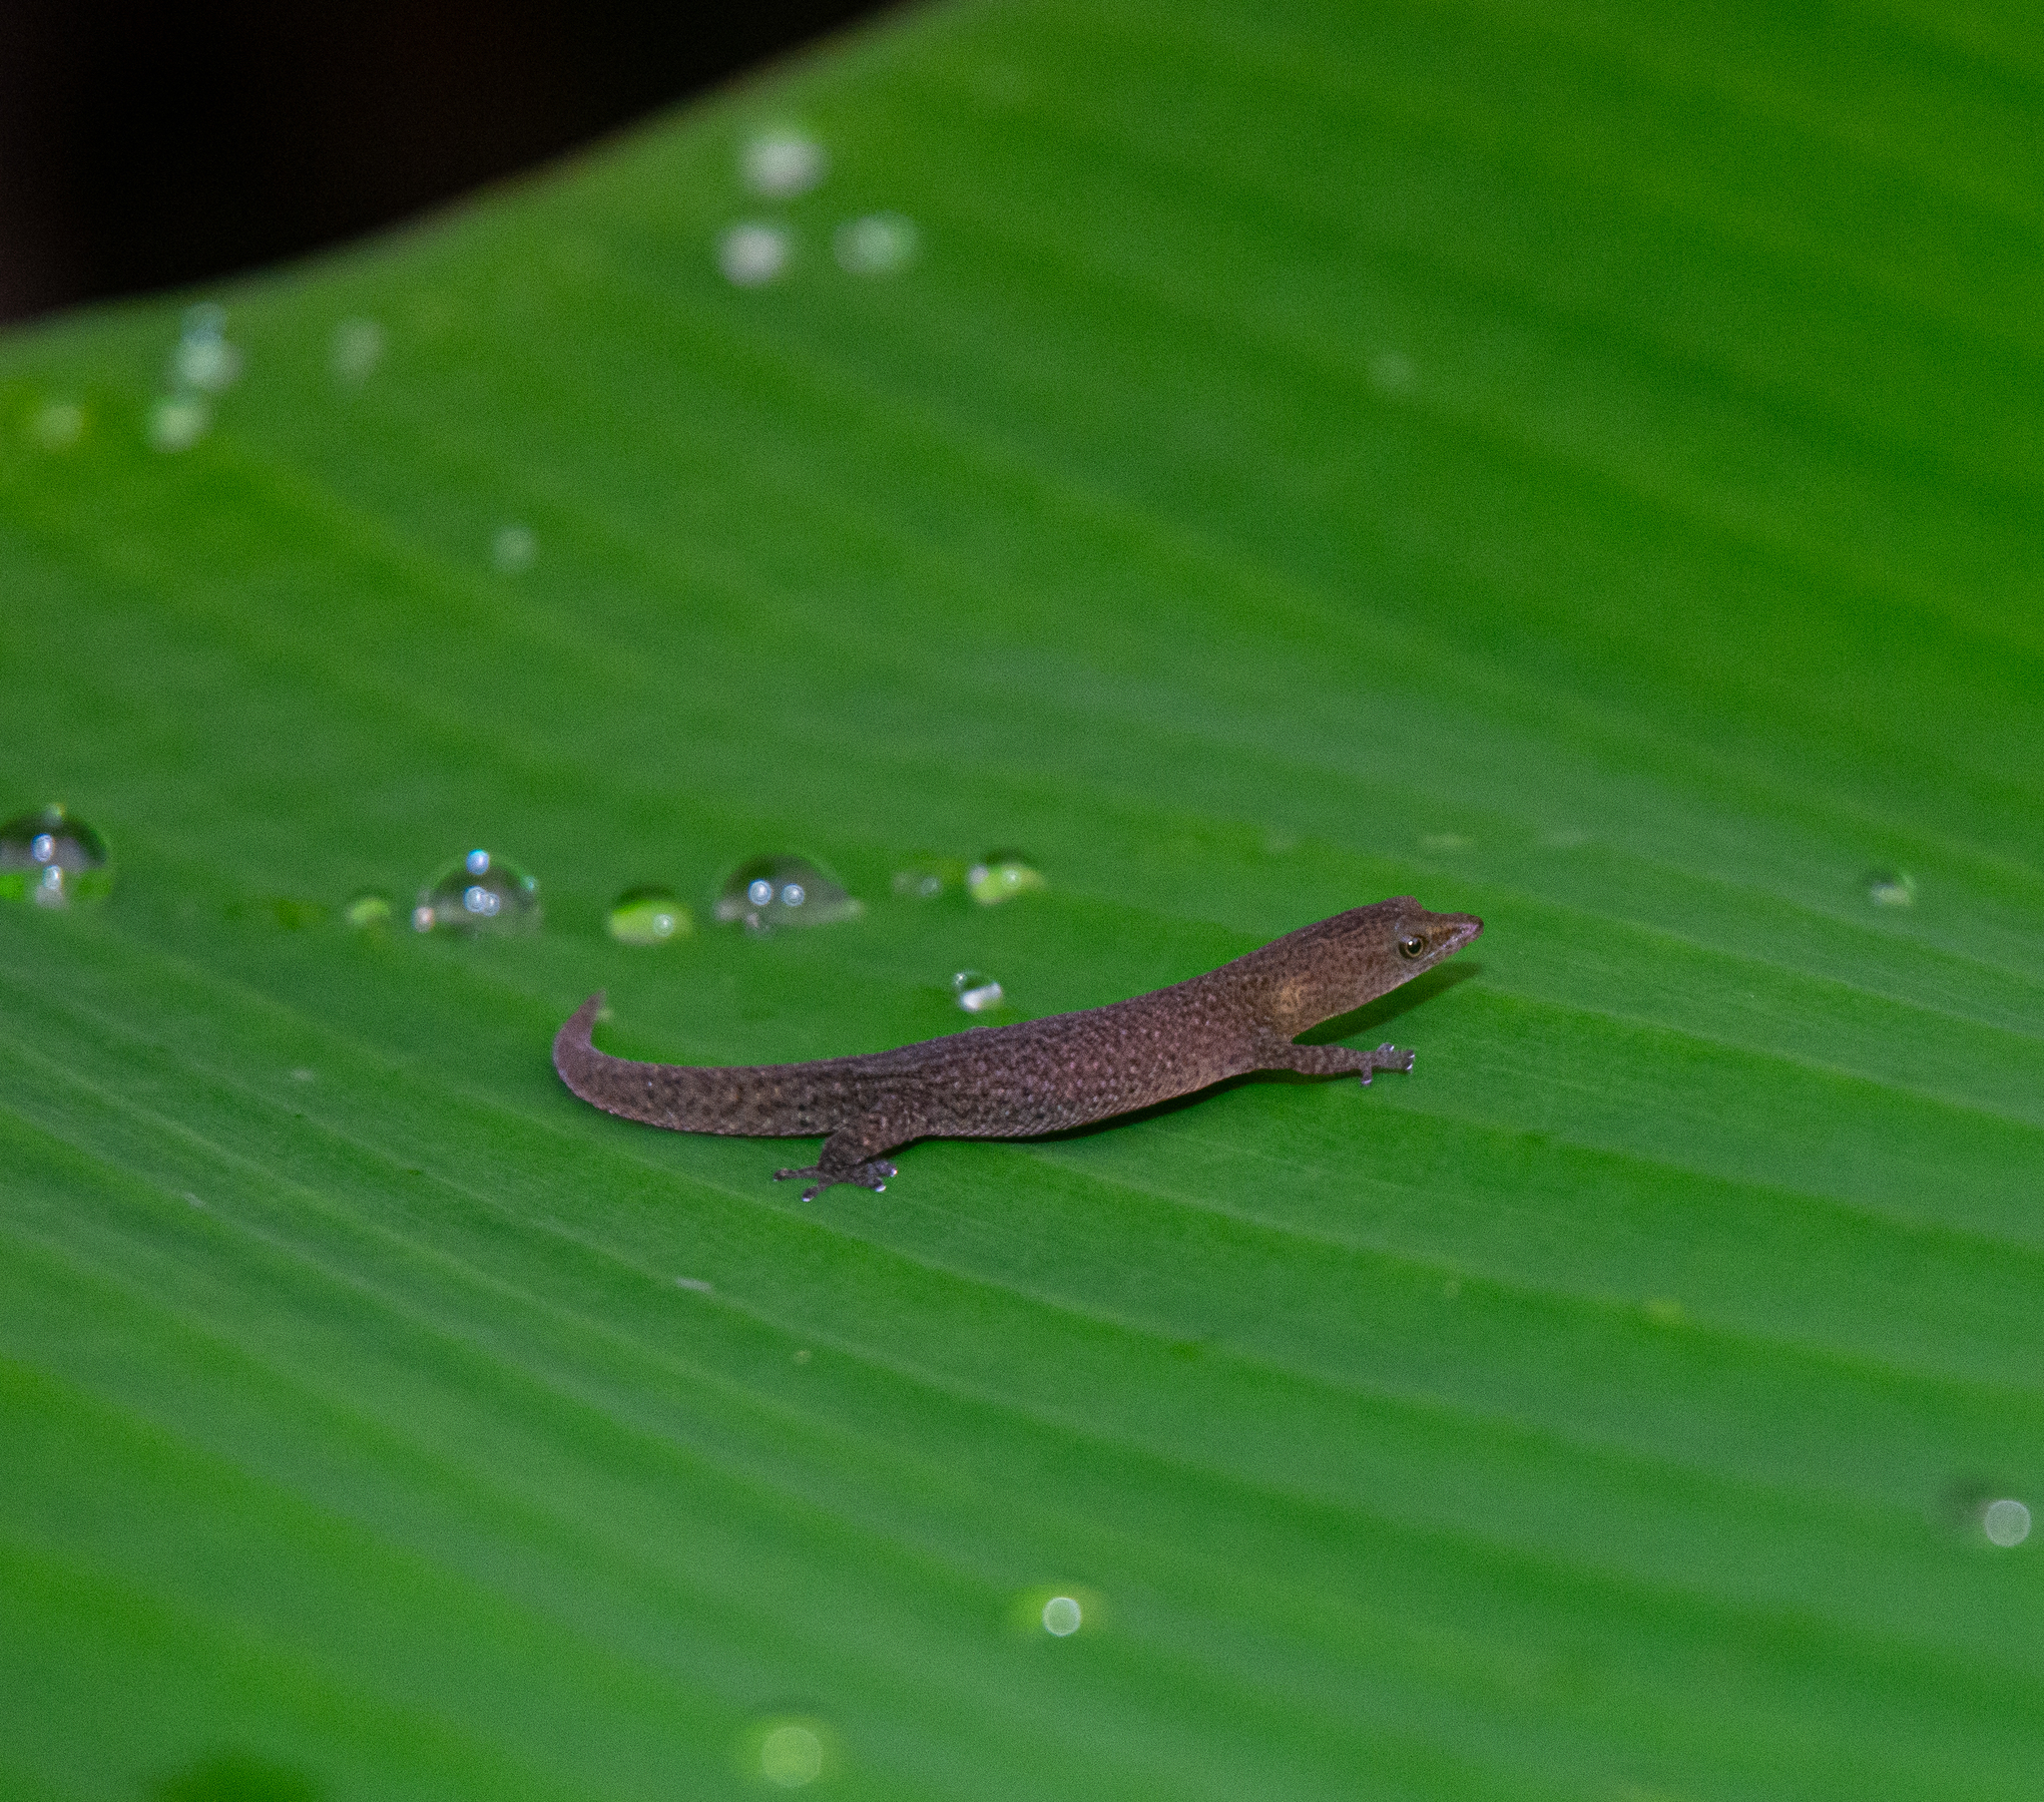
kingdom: Animalia
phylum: Chordata
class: Squamata
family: Sphaerodactylidae
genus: Sphaerodactylus
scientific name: Sphaerodactylus argivus
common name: Cayman least gecko
